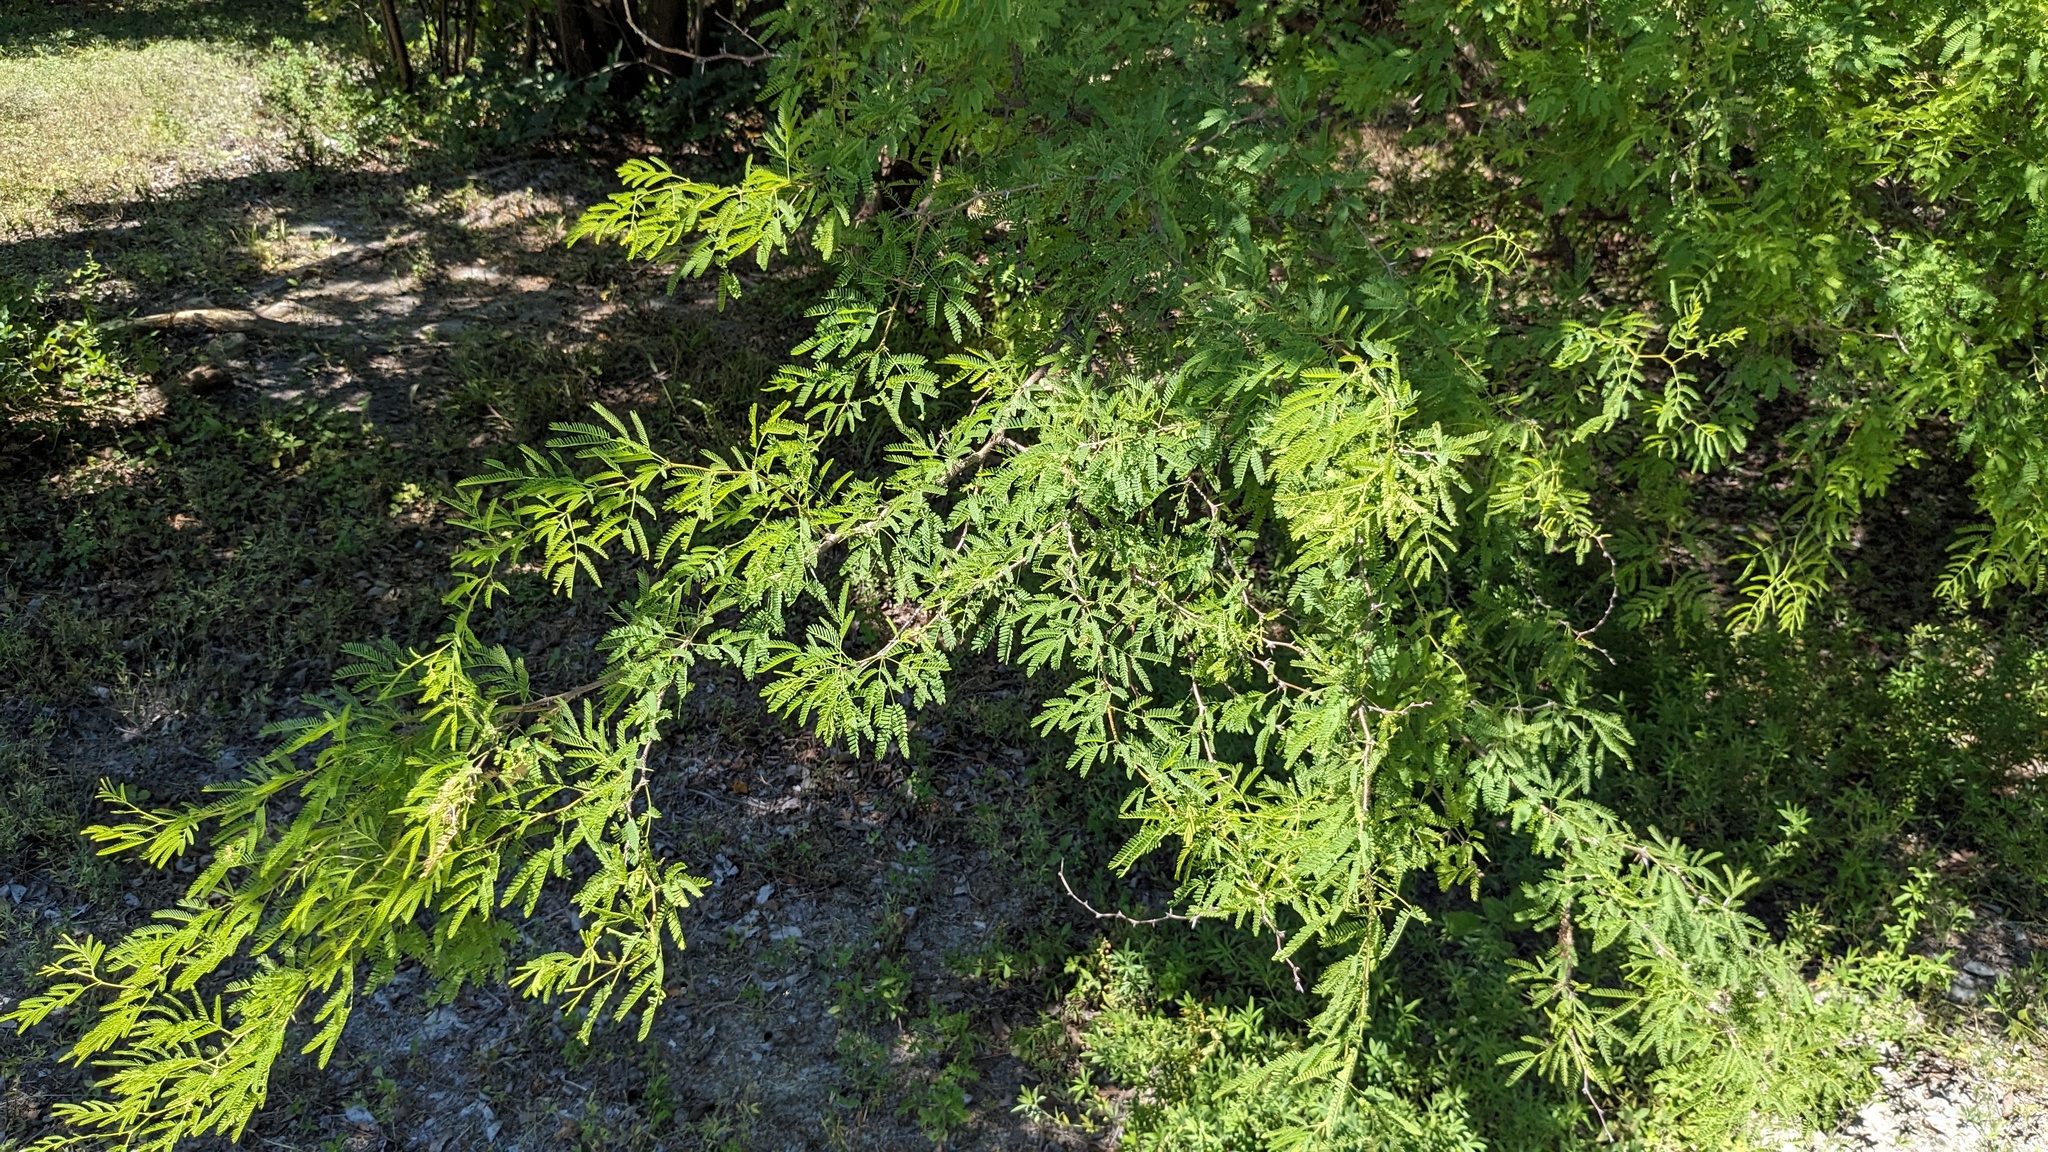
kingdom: Plantae
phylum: Tracheophyta
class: Magnoliopsida
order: Fabales
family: Fabaceae
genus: Vachellia
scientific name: Vachellia farnesiana
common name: Sweet acacia
